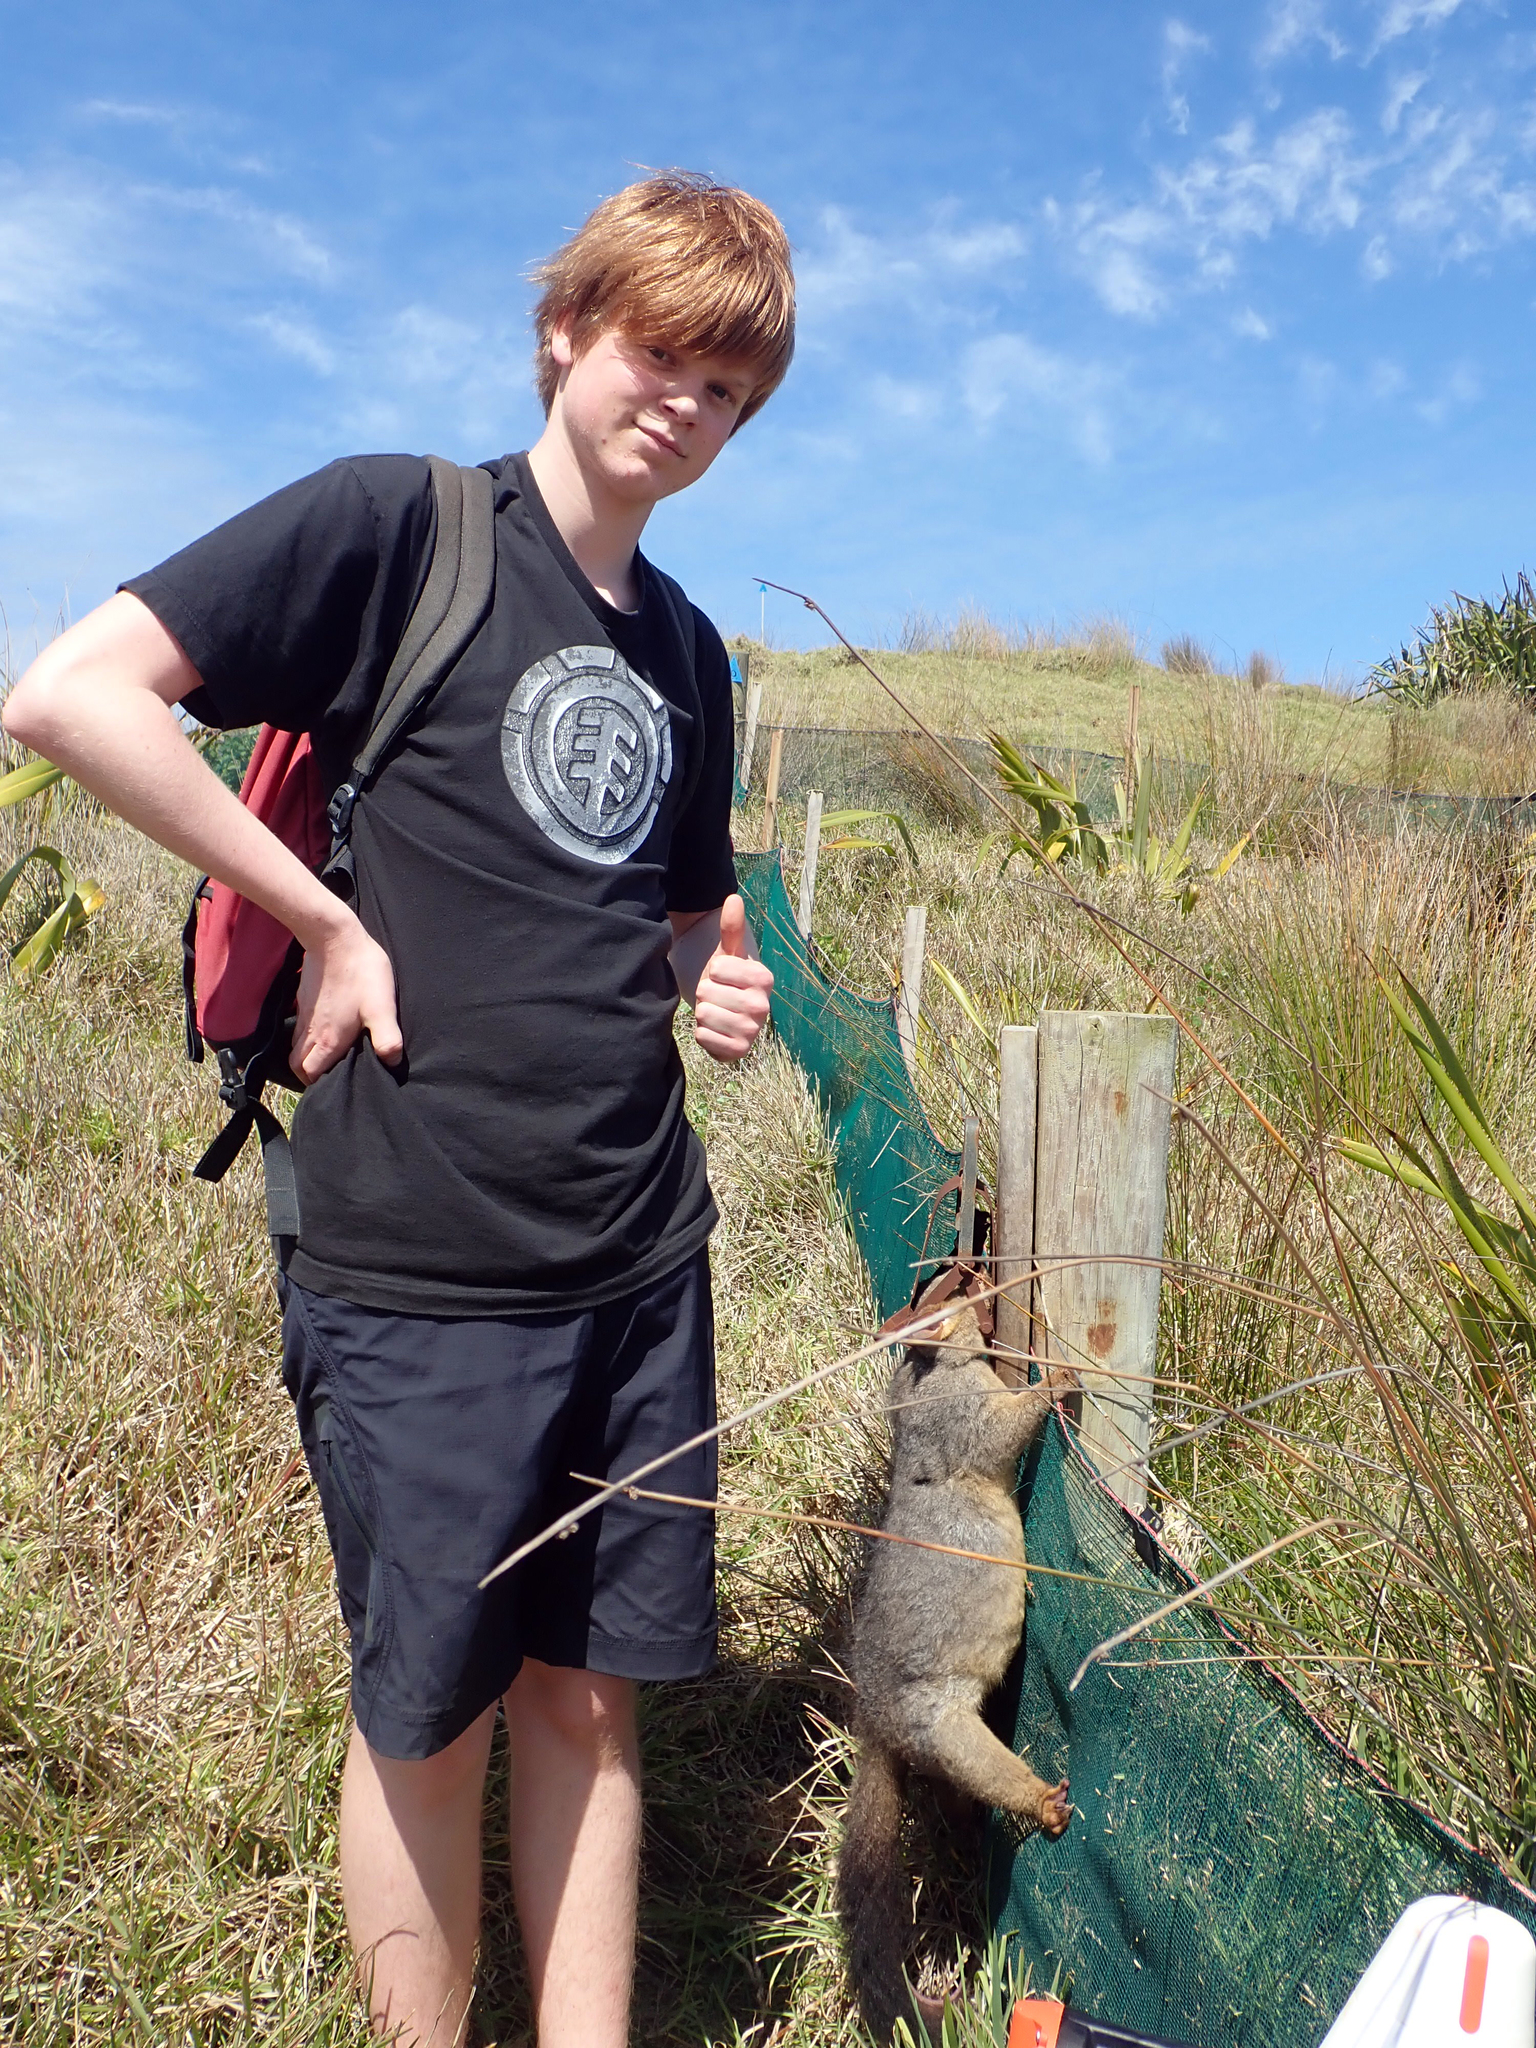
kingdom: Animalia
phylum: Chordata
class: Mammalia
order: Diprotodontia
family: Phalangeridae
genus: Trichosurus
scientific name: Trichosurus vulpecula
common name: Common brushtail
